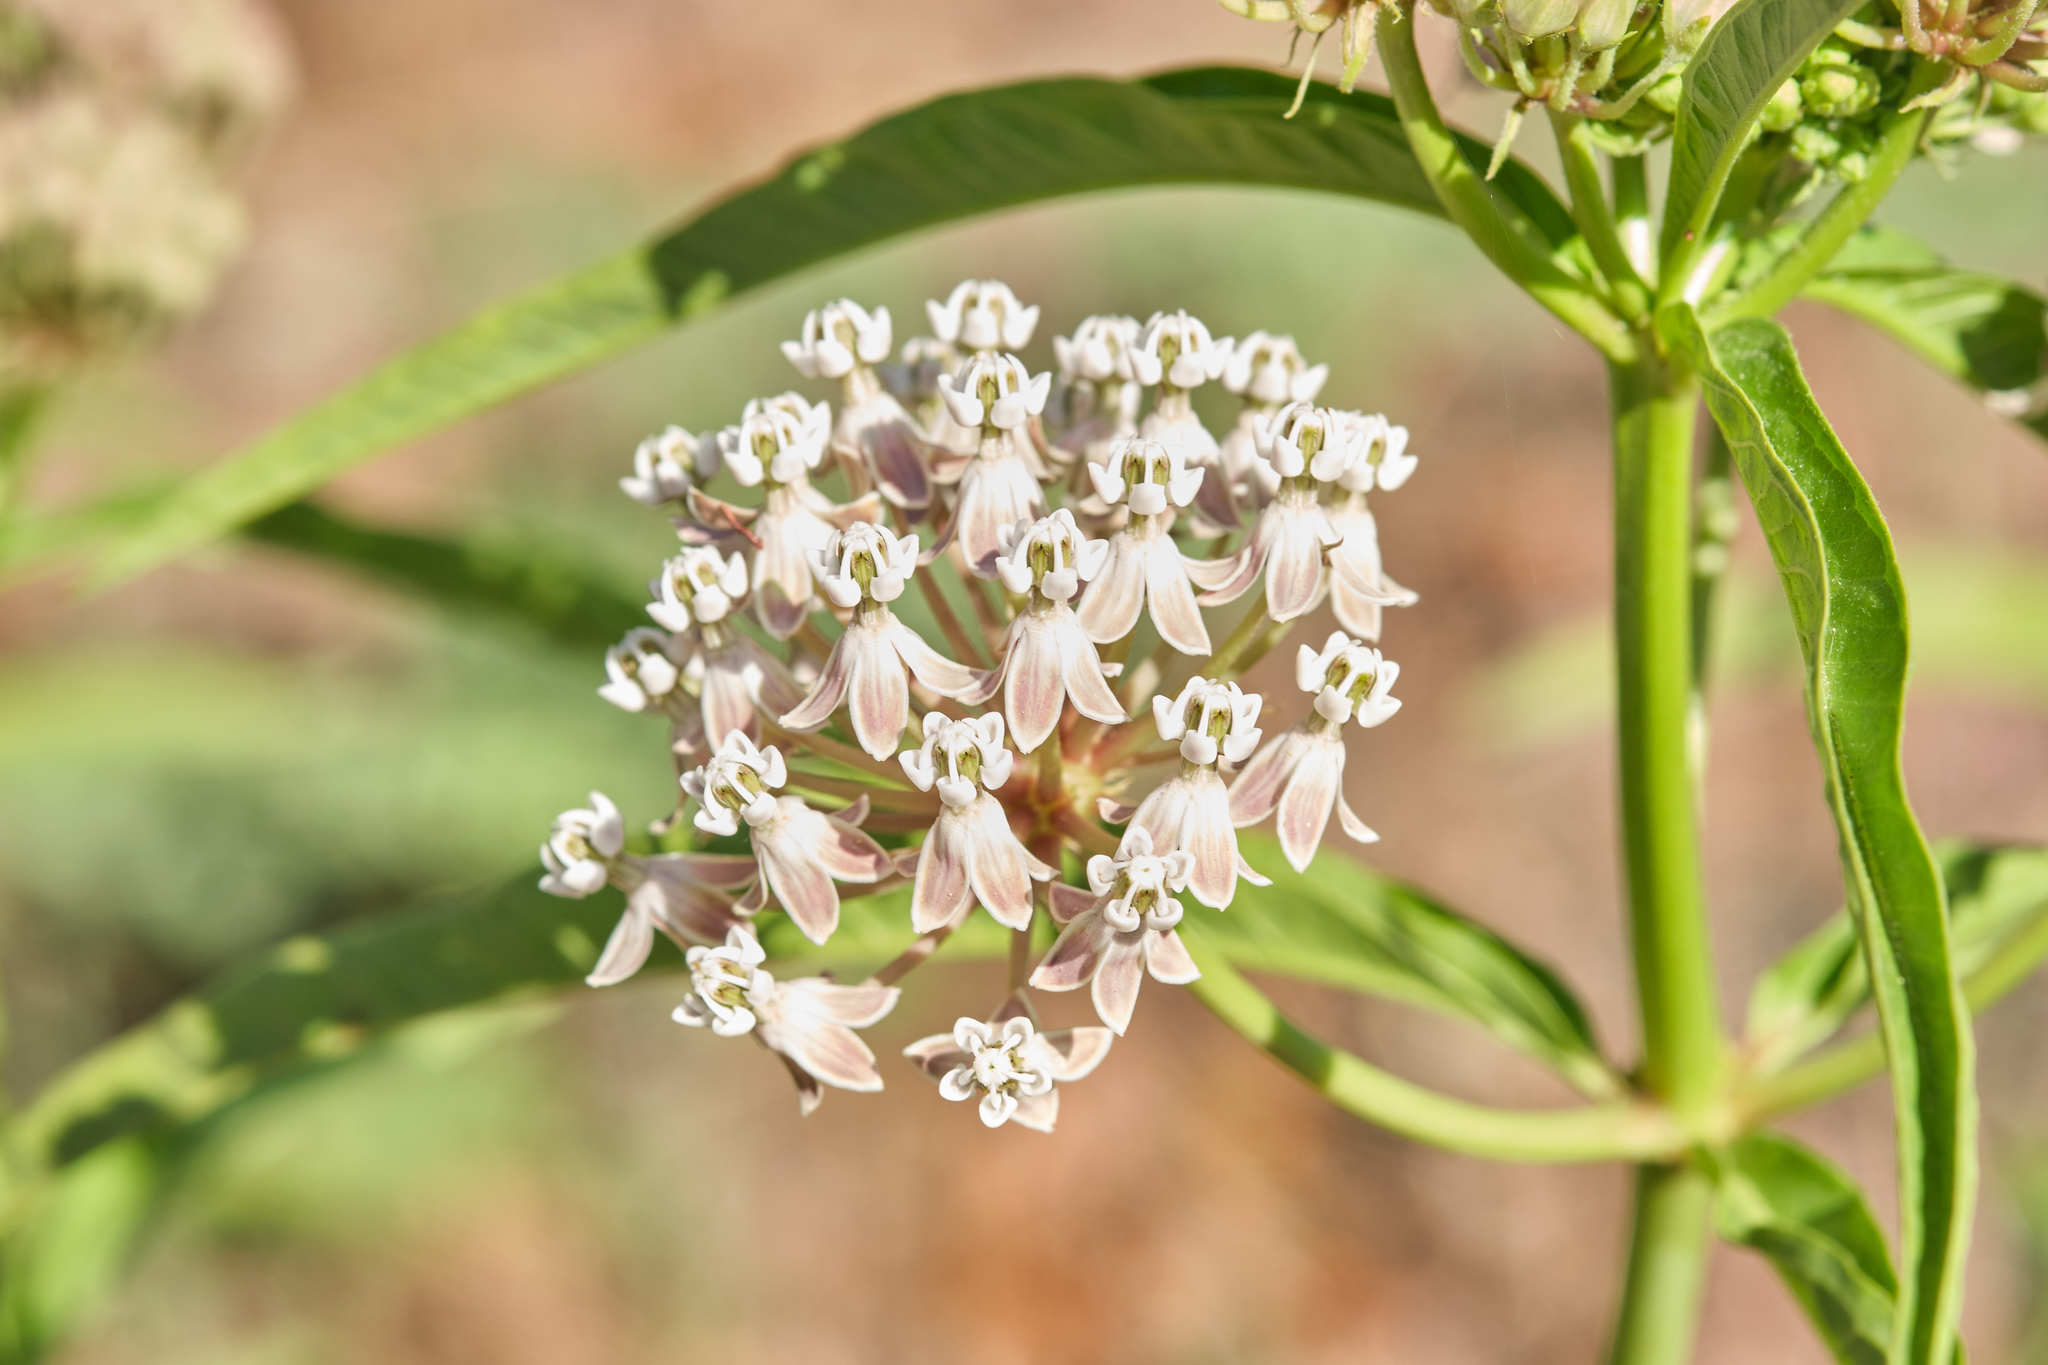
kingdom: Plantae
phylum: Tracheophyta
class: Magnoliopsida
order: Gentianales
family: Apocynaceae
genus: Asclepias
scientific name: Asclepias fascicularis
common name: Mexican milkweed
